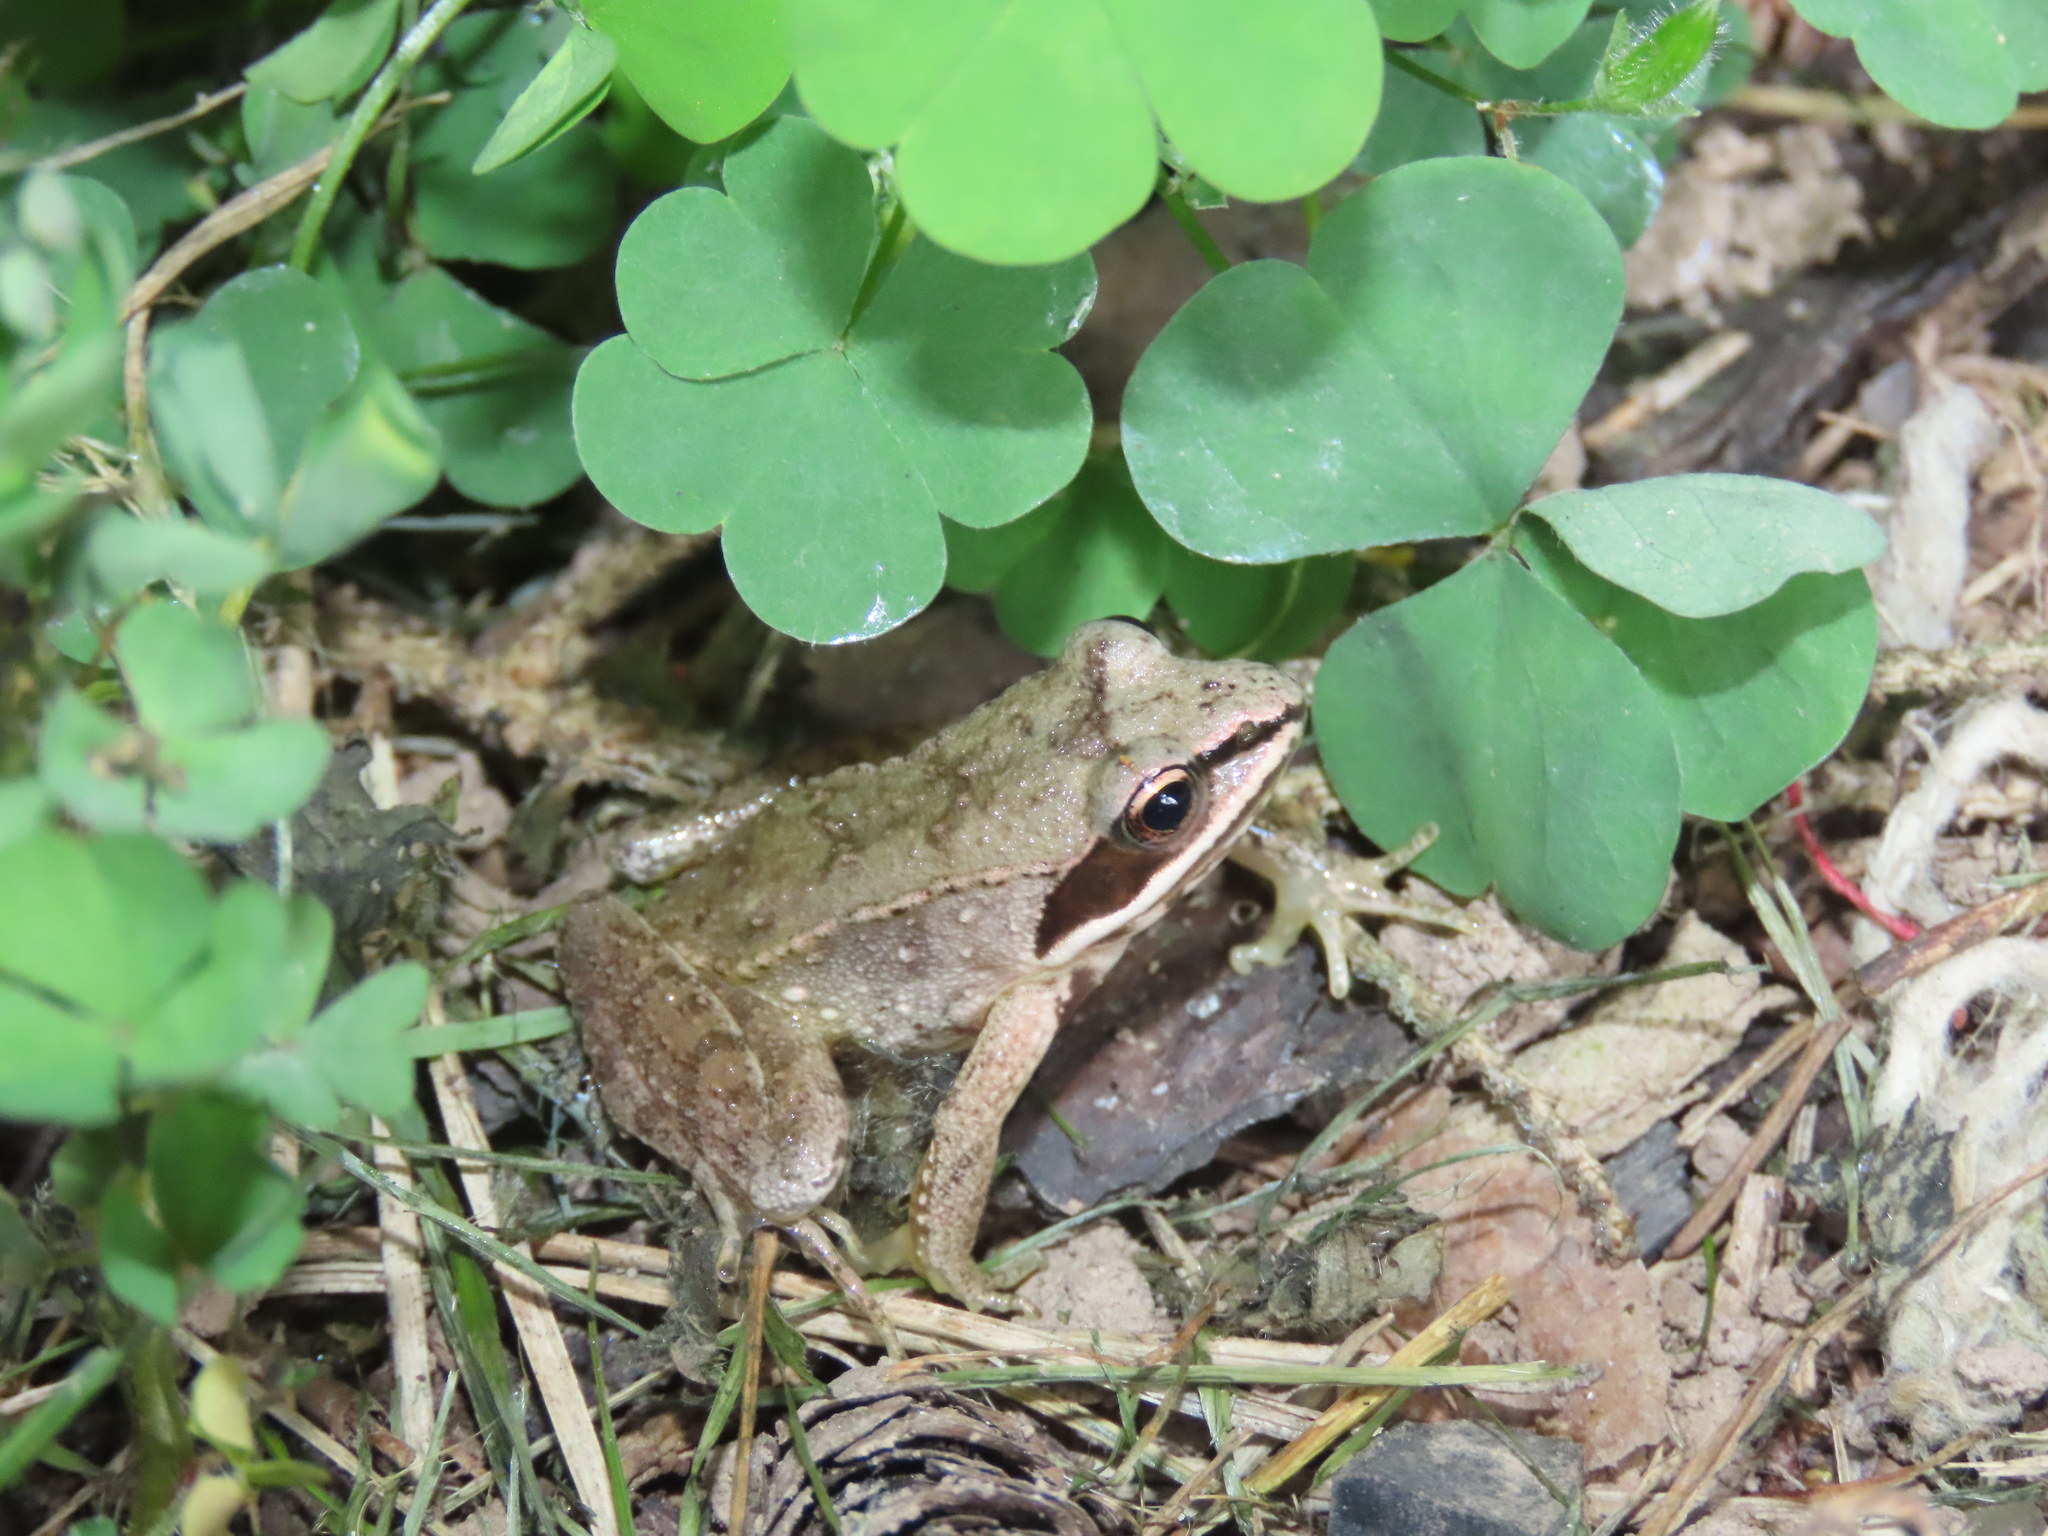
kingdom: Animalia
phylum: Chordata
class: Amphibia
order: Anura
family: Ranidae
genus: Lithobates
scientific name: Lithobates sylvaticus
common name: Wood frog
